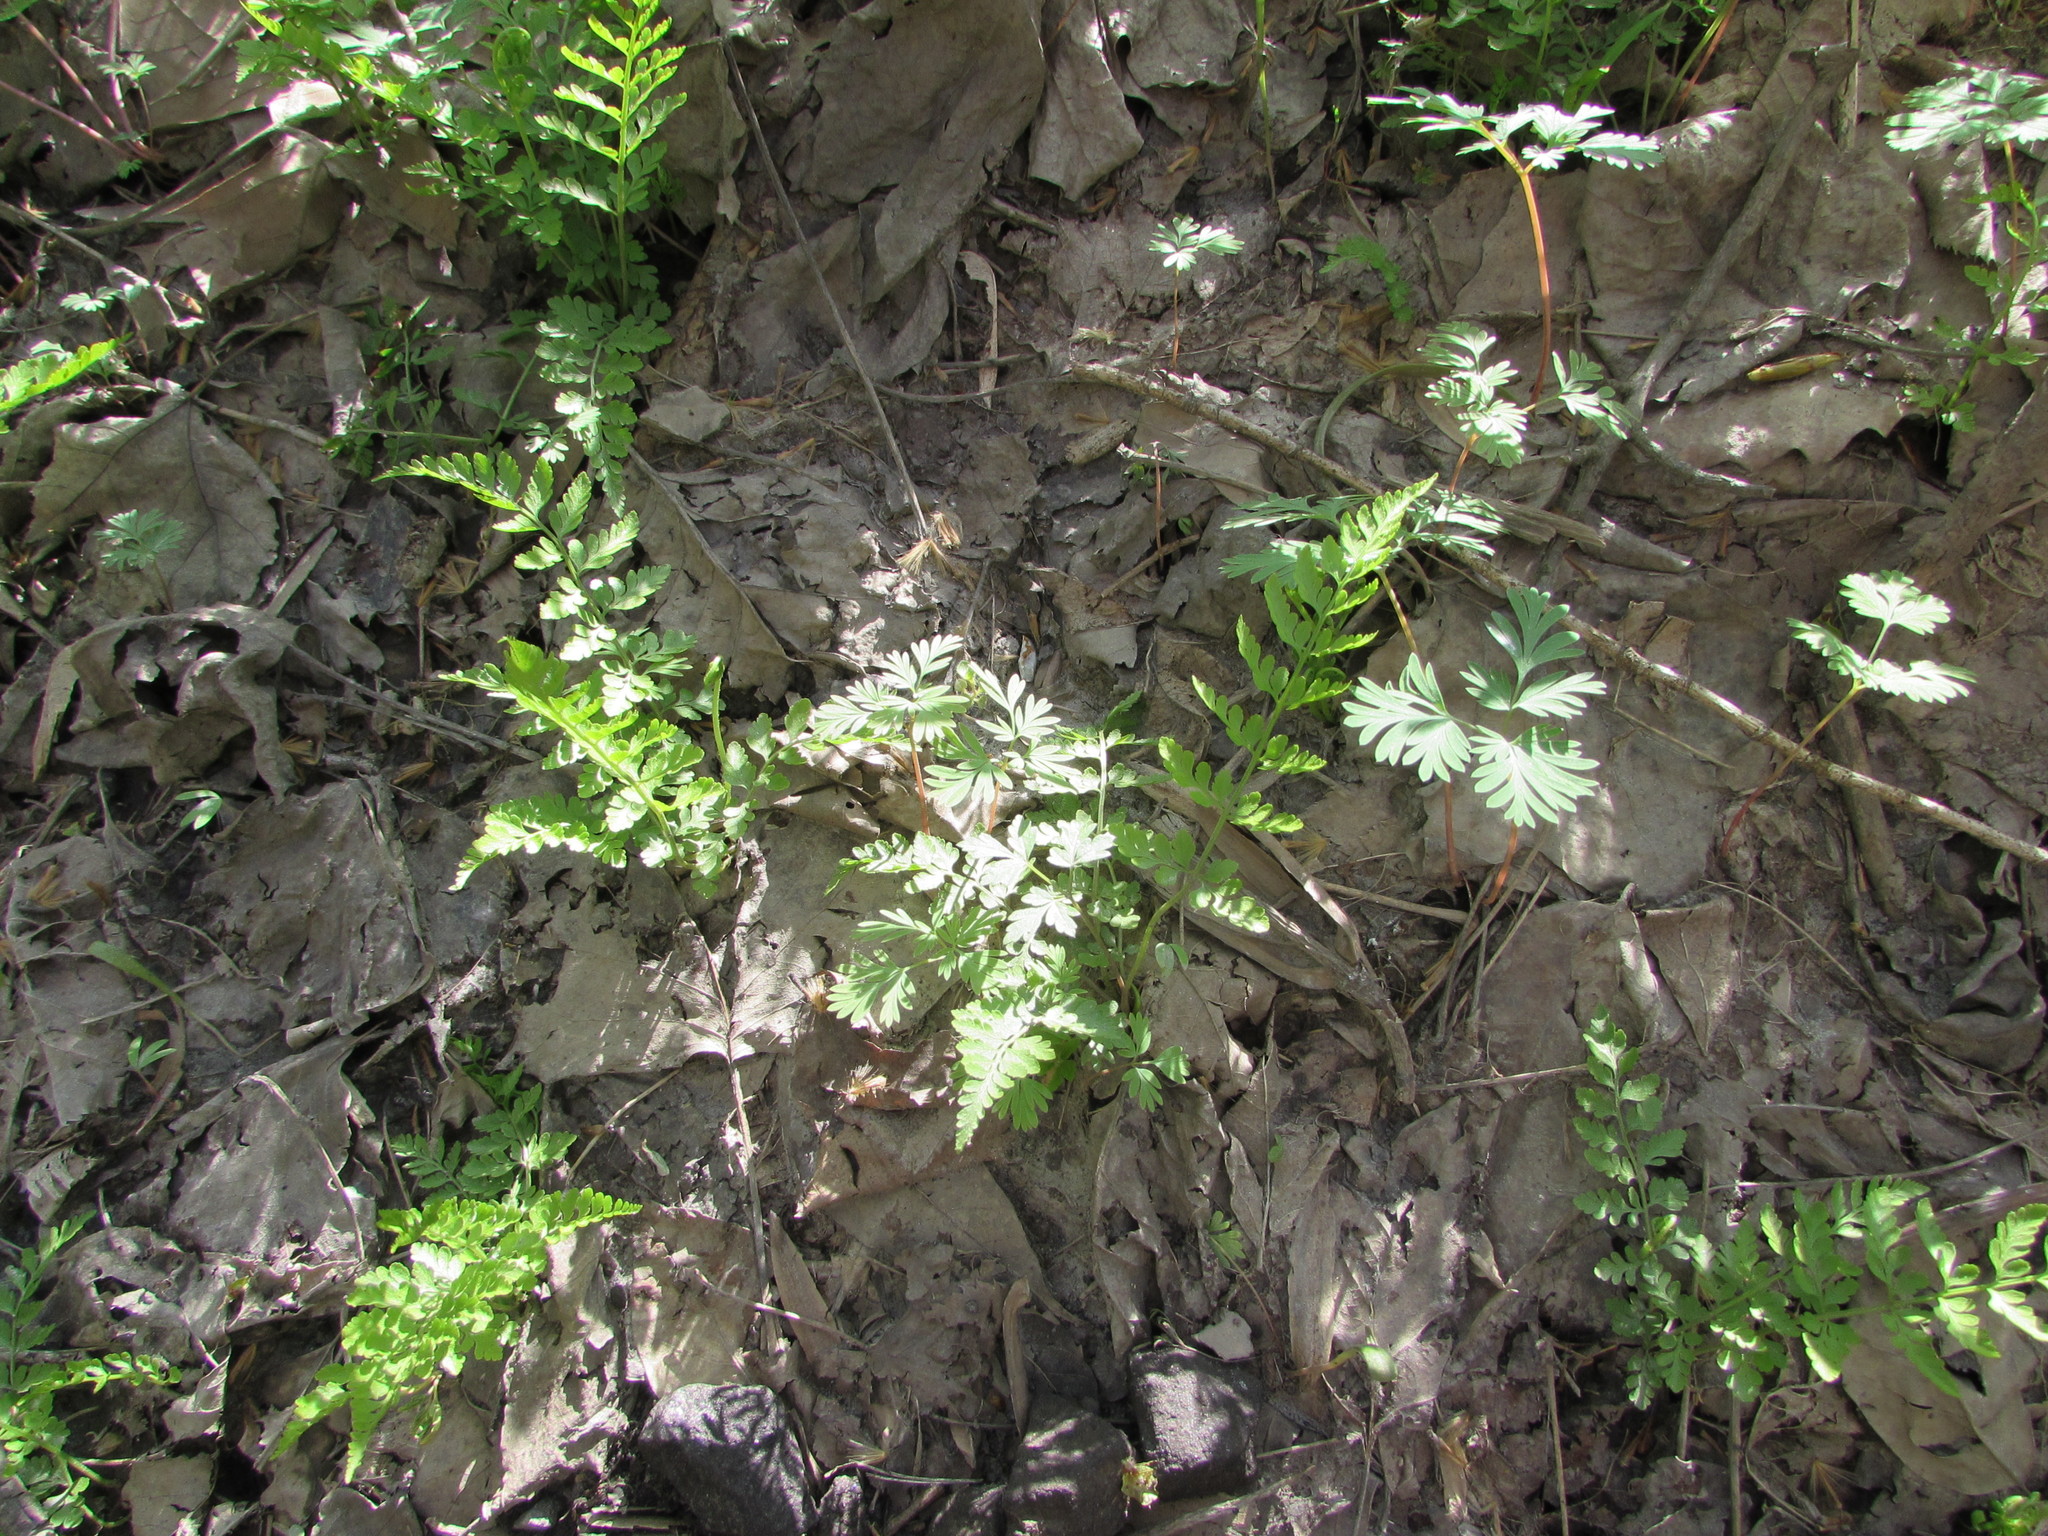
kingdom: Plantae
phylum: Tracheophyta
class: Polypodiopsida
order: Polypodiales
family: Cystopteridaceae
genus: Cystopteris
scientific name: Cystopteris protrusa
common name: Lowland brittle fern
